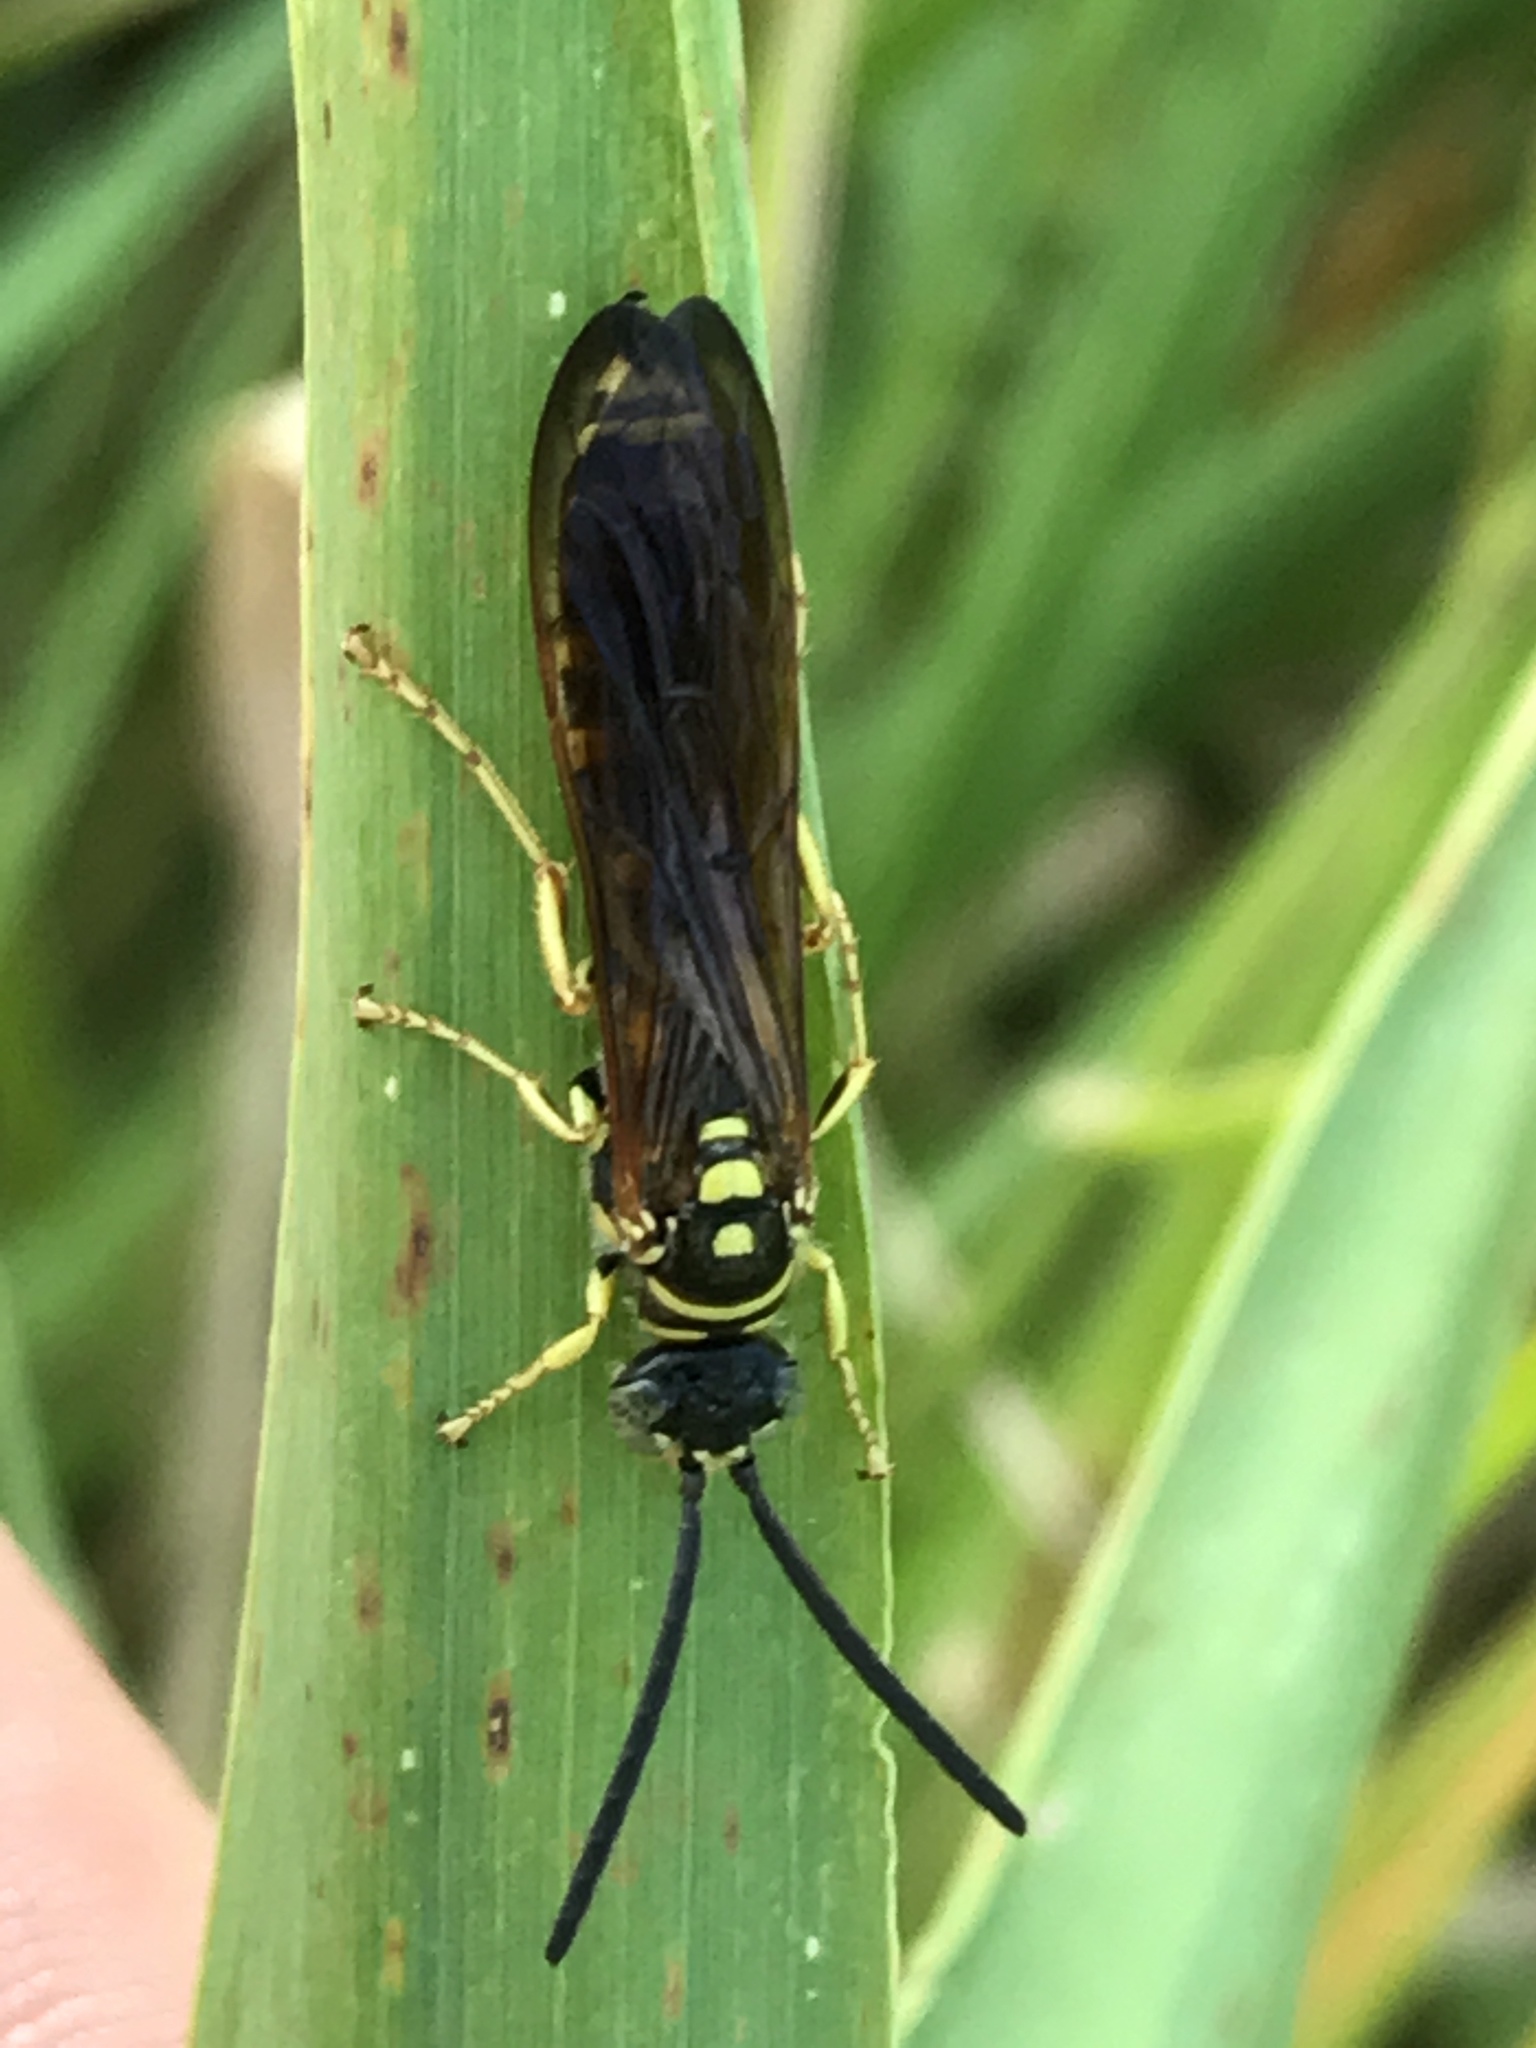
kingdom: Animalia
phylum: Arthropoda
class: Insecta
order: Hymenoptera
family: Tiphiidae
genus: Myzinum
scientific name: Myzinum quinquecinctum
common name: Five-banded thynnid wasp
